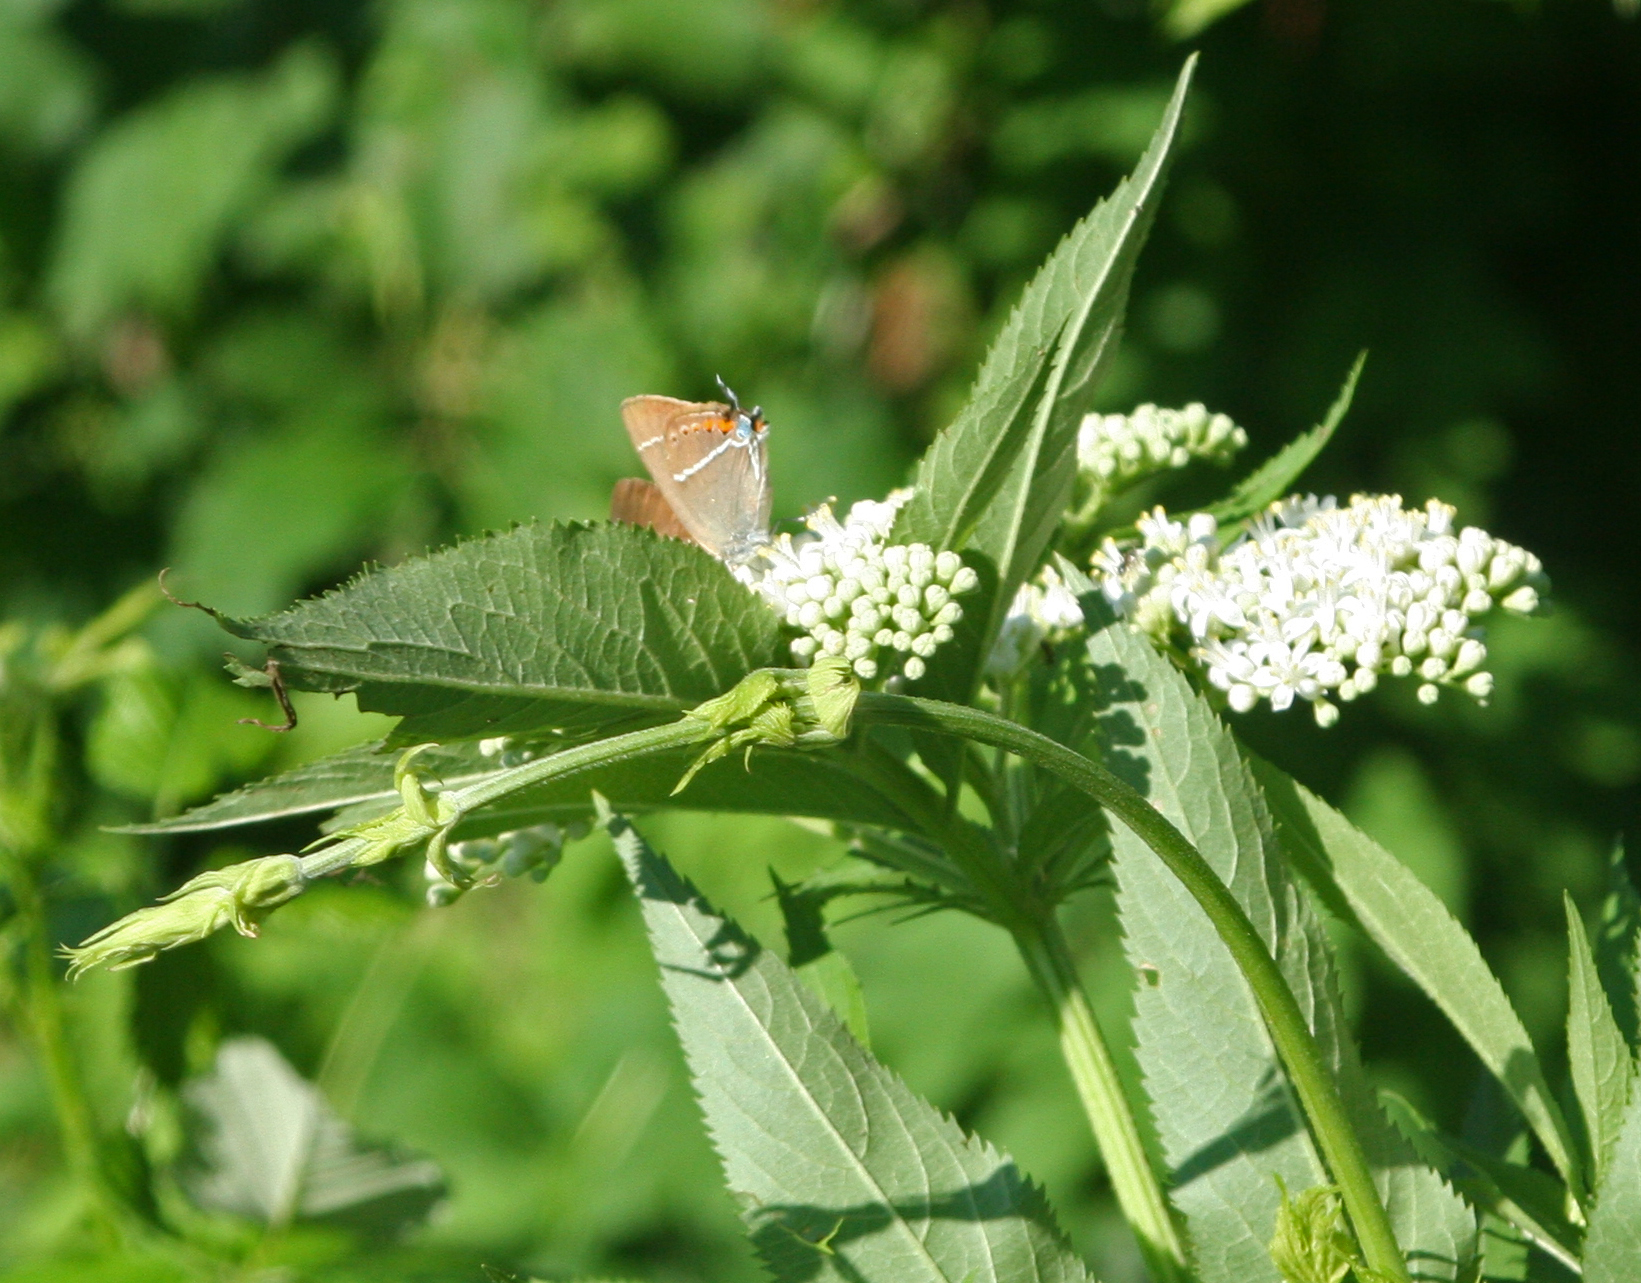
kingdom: Animalia
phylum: Arthropoda
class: Insecta
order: Lepidoptera
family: Lycaenidae
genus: Tuttiola
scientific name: Tuttiola spini
